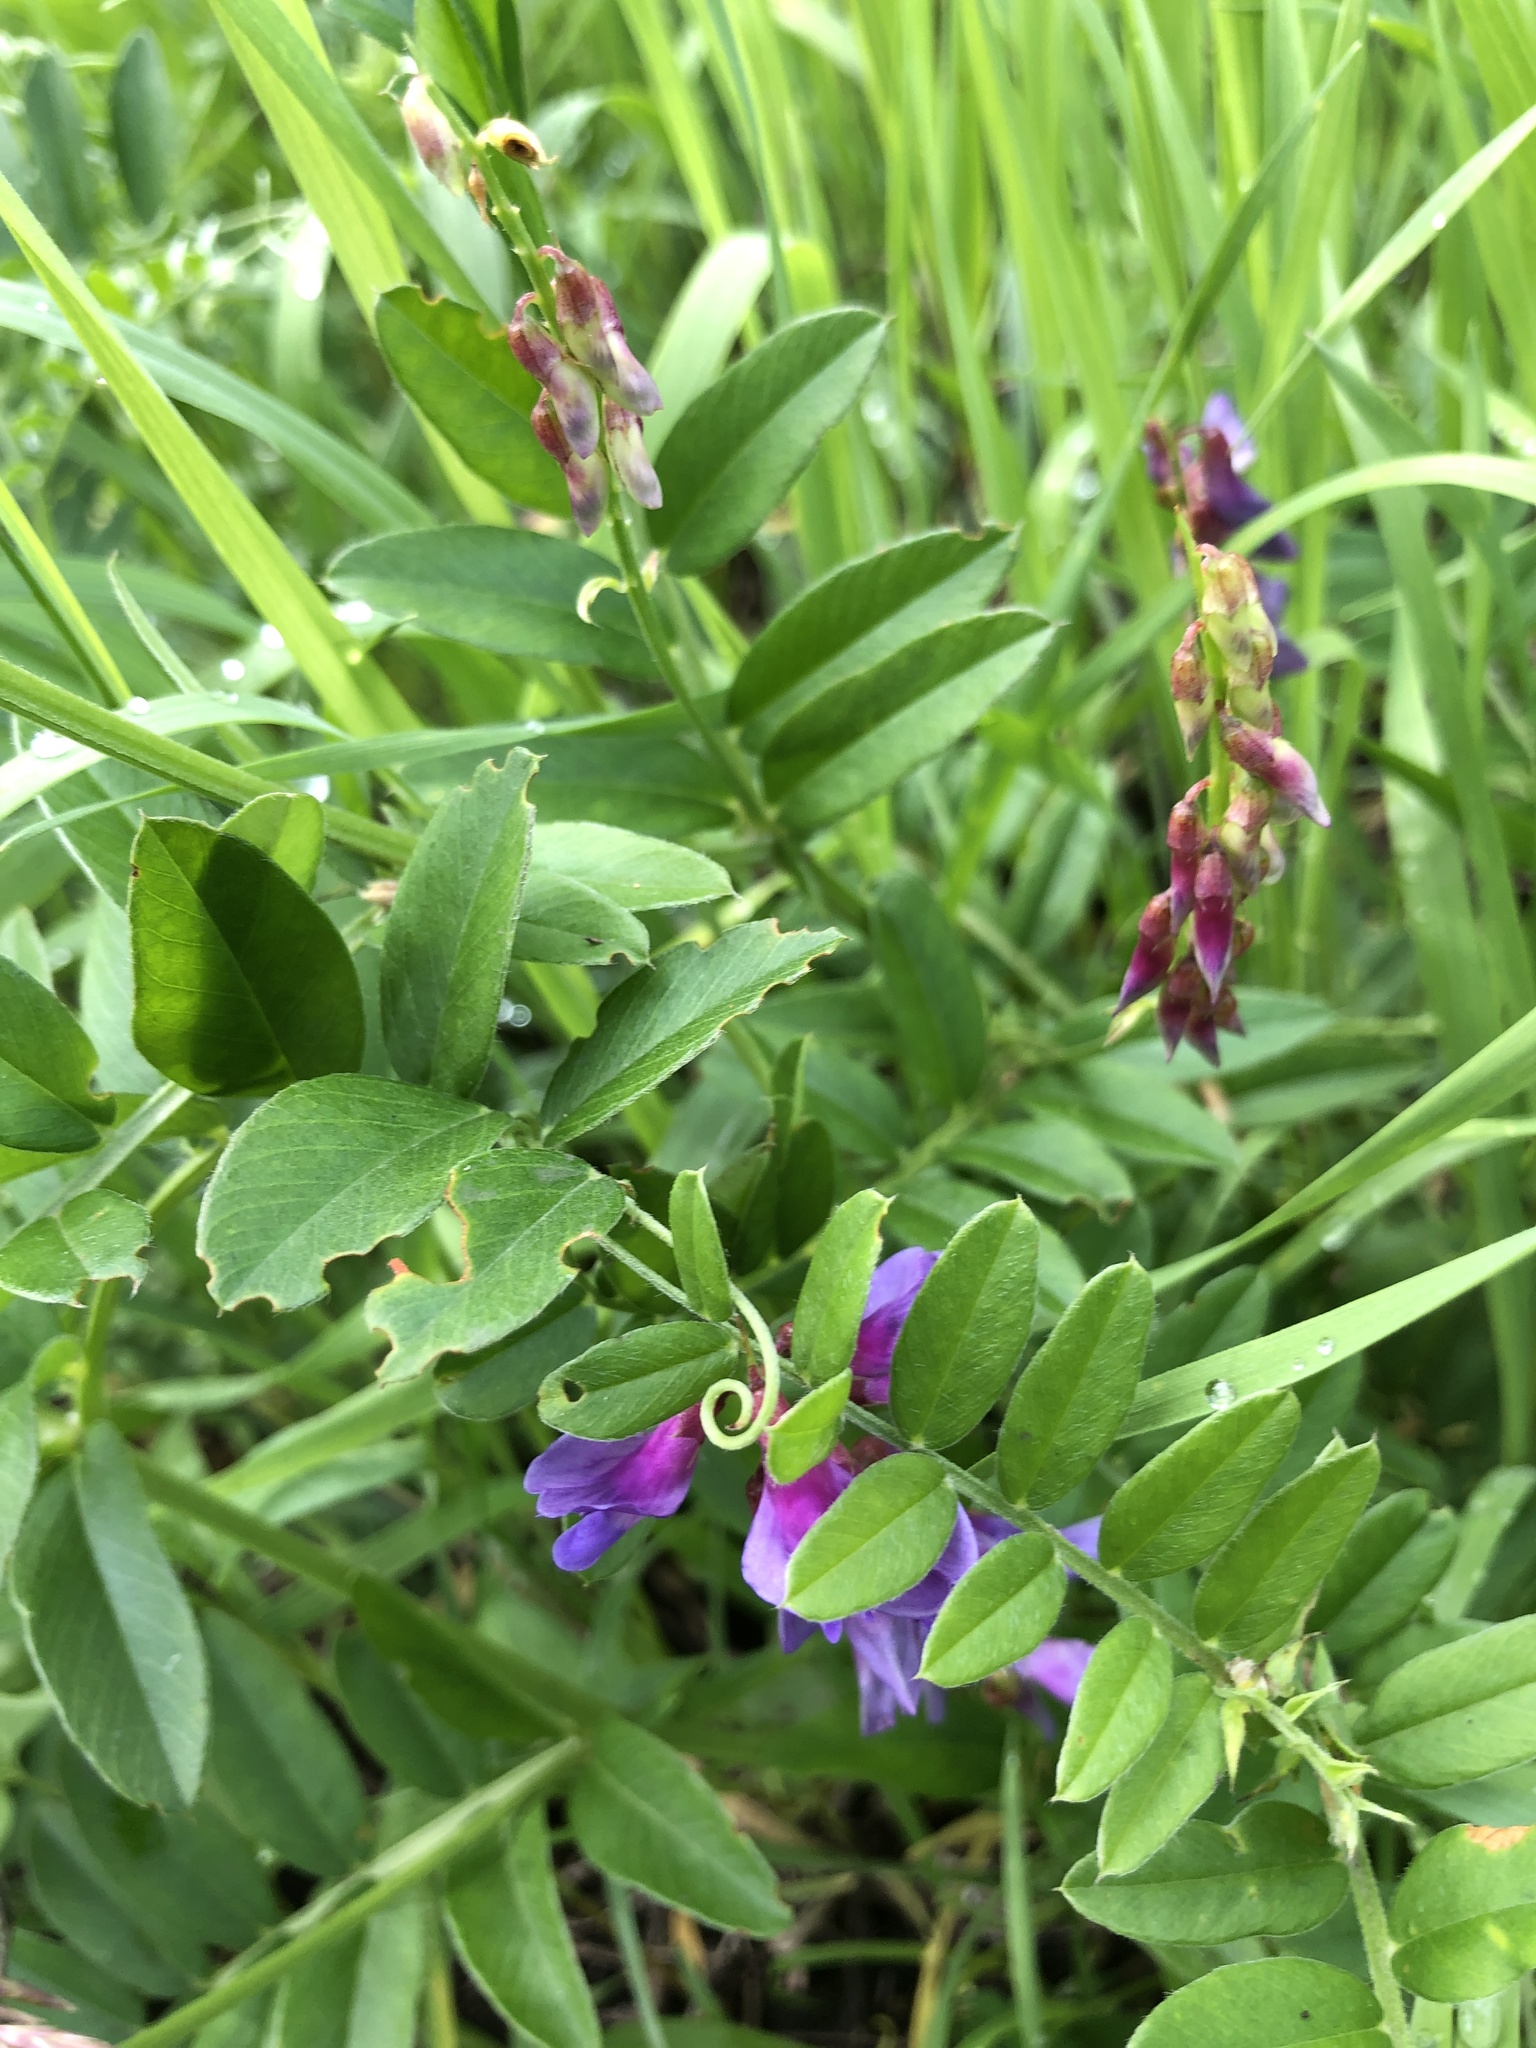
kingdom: Plantae
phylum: Tracheophyta
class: Magnoliopsida
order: Fabales
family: Fabaceae
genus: Vicia
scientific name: Vicia amoena
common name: Cheder ebs
